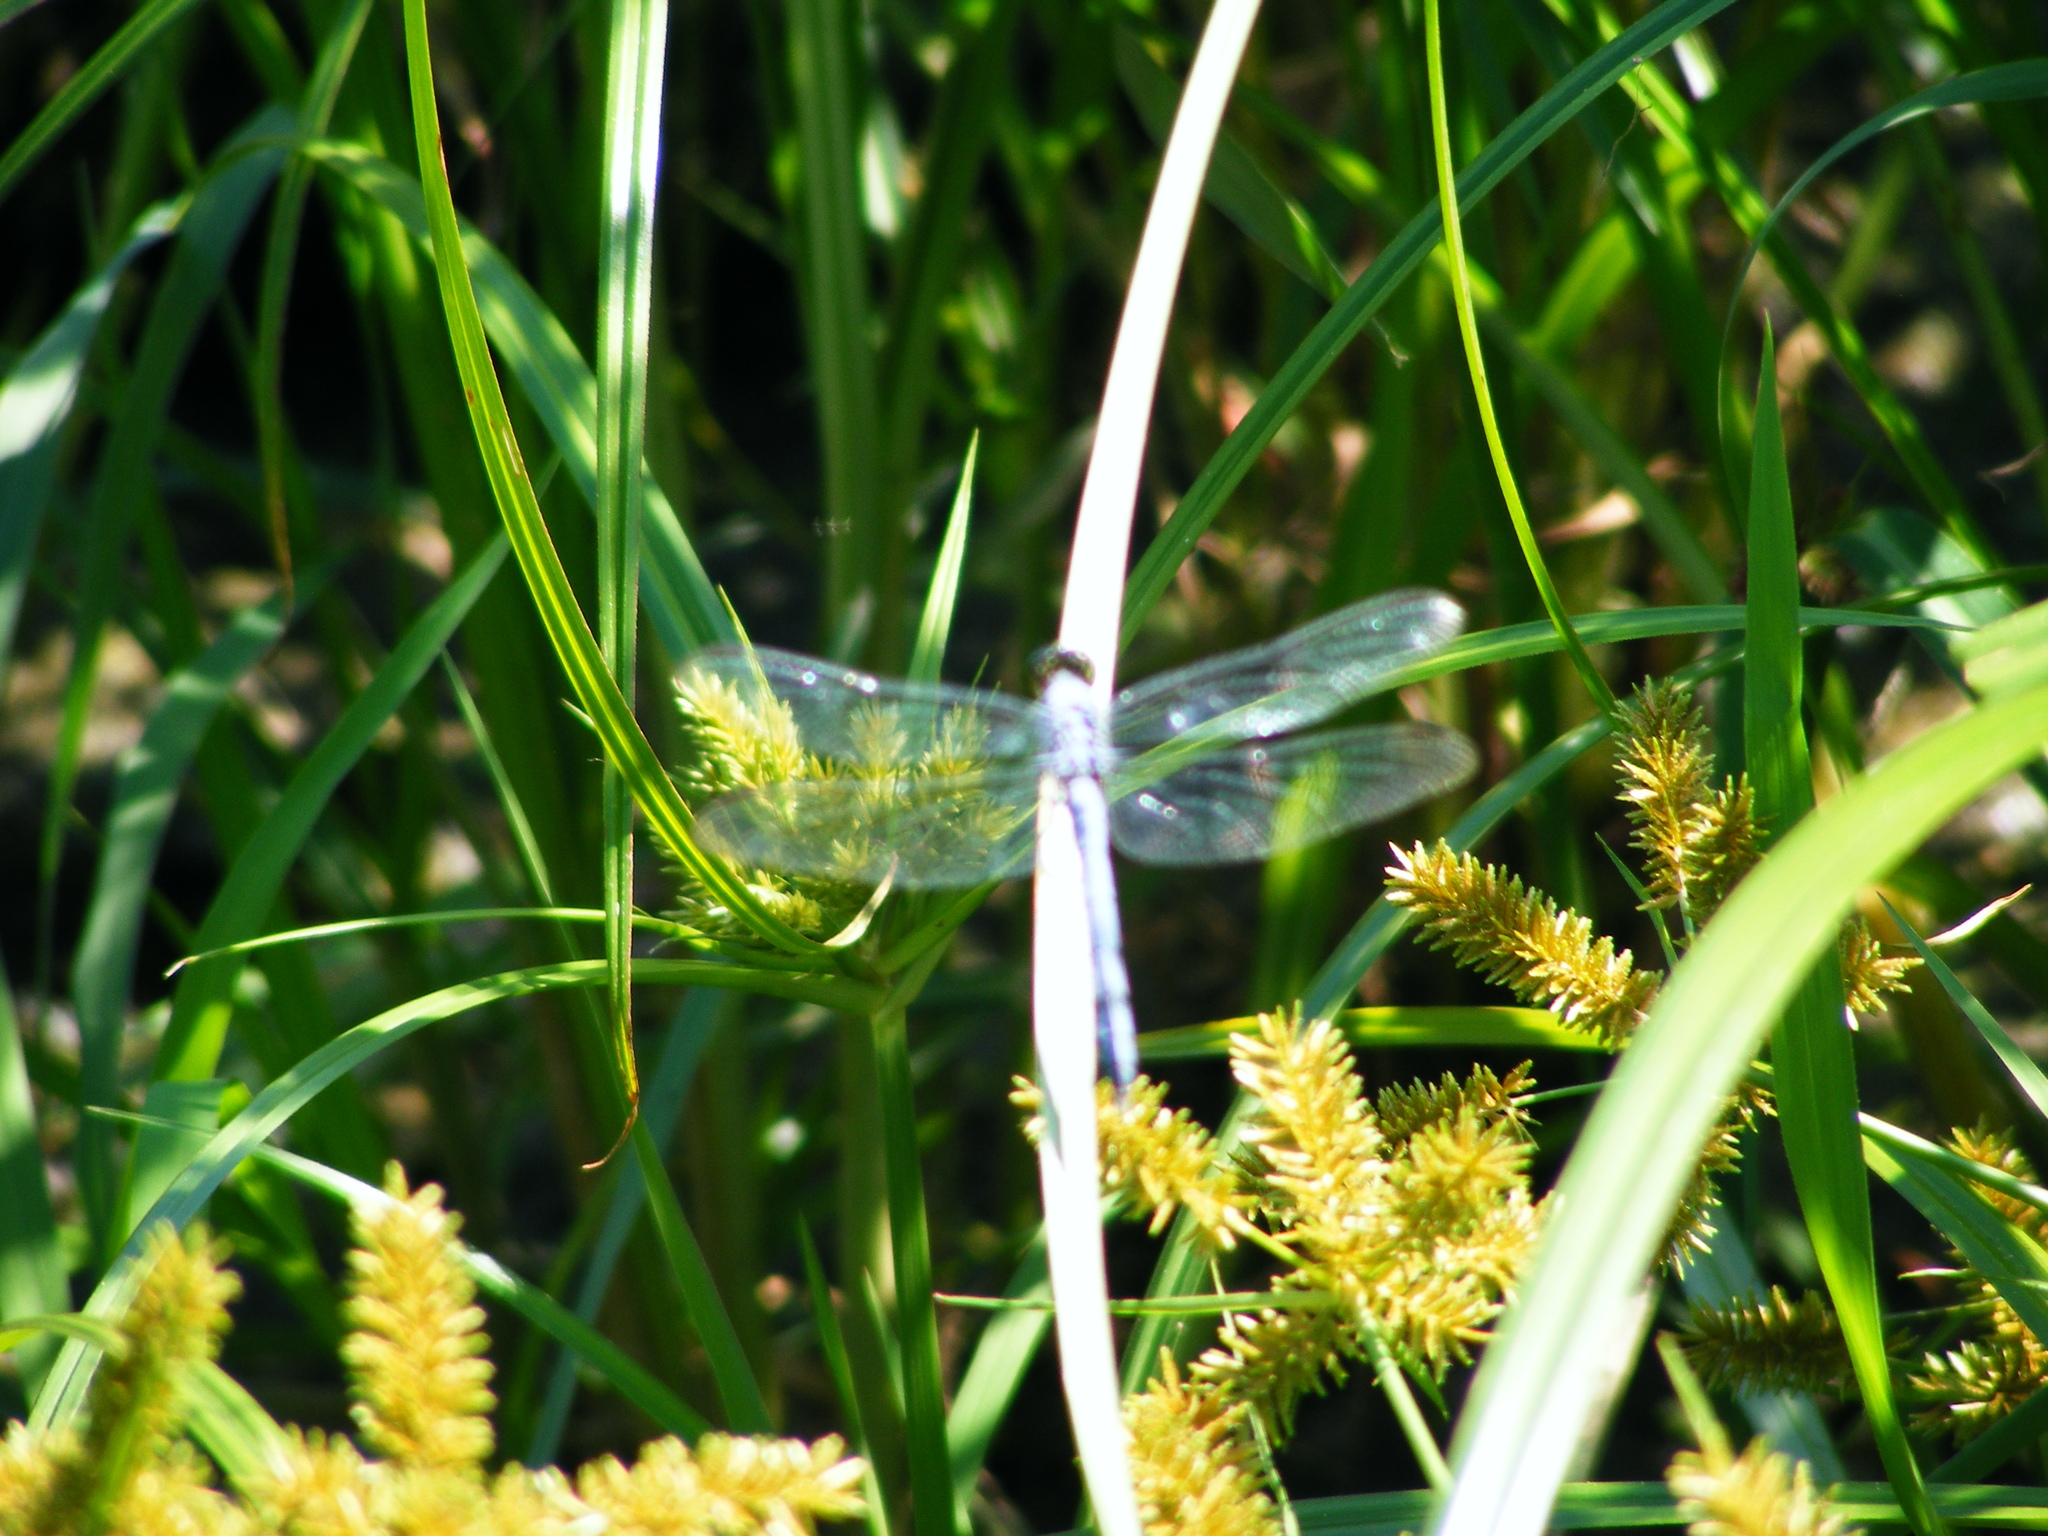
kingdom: Animalia
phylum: Arthropoda
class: Insecta
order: Odonata
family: Libellulidae
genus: Erythemis
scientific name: Erythemis simplicicollis
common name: Eastern pondhawk
